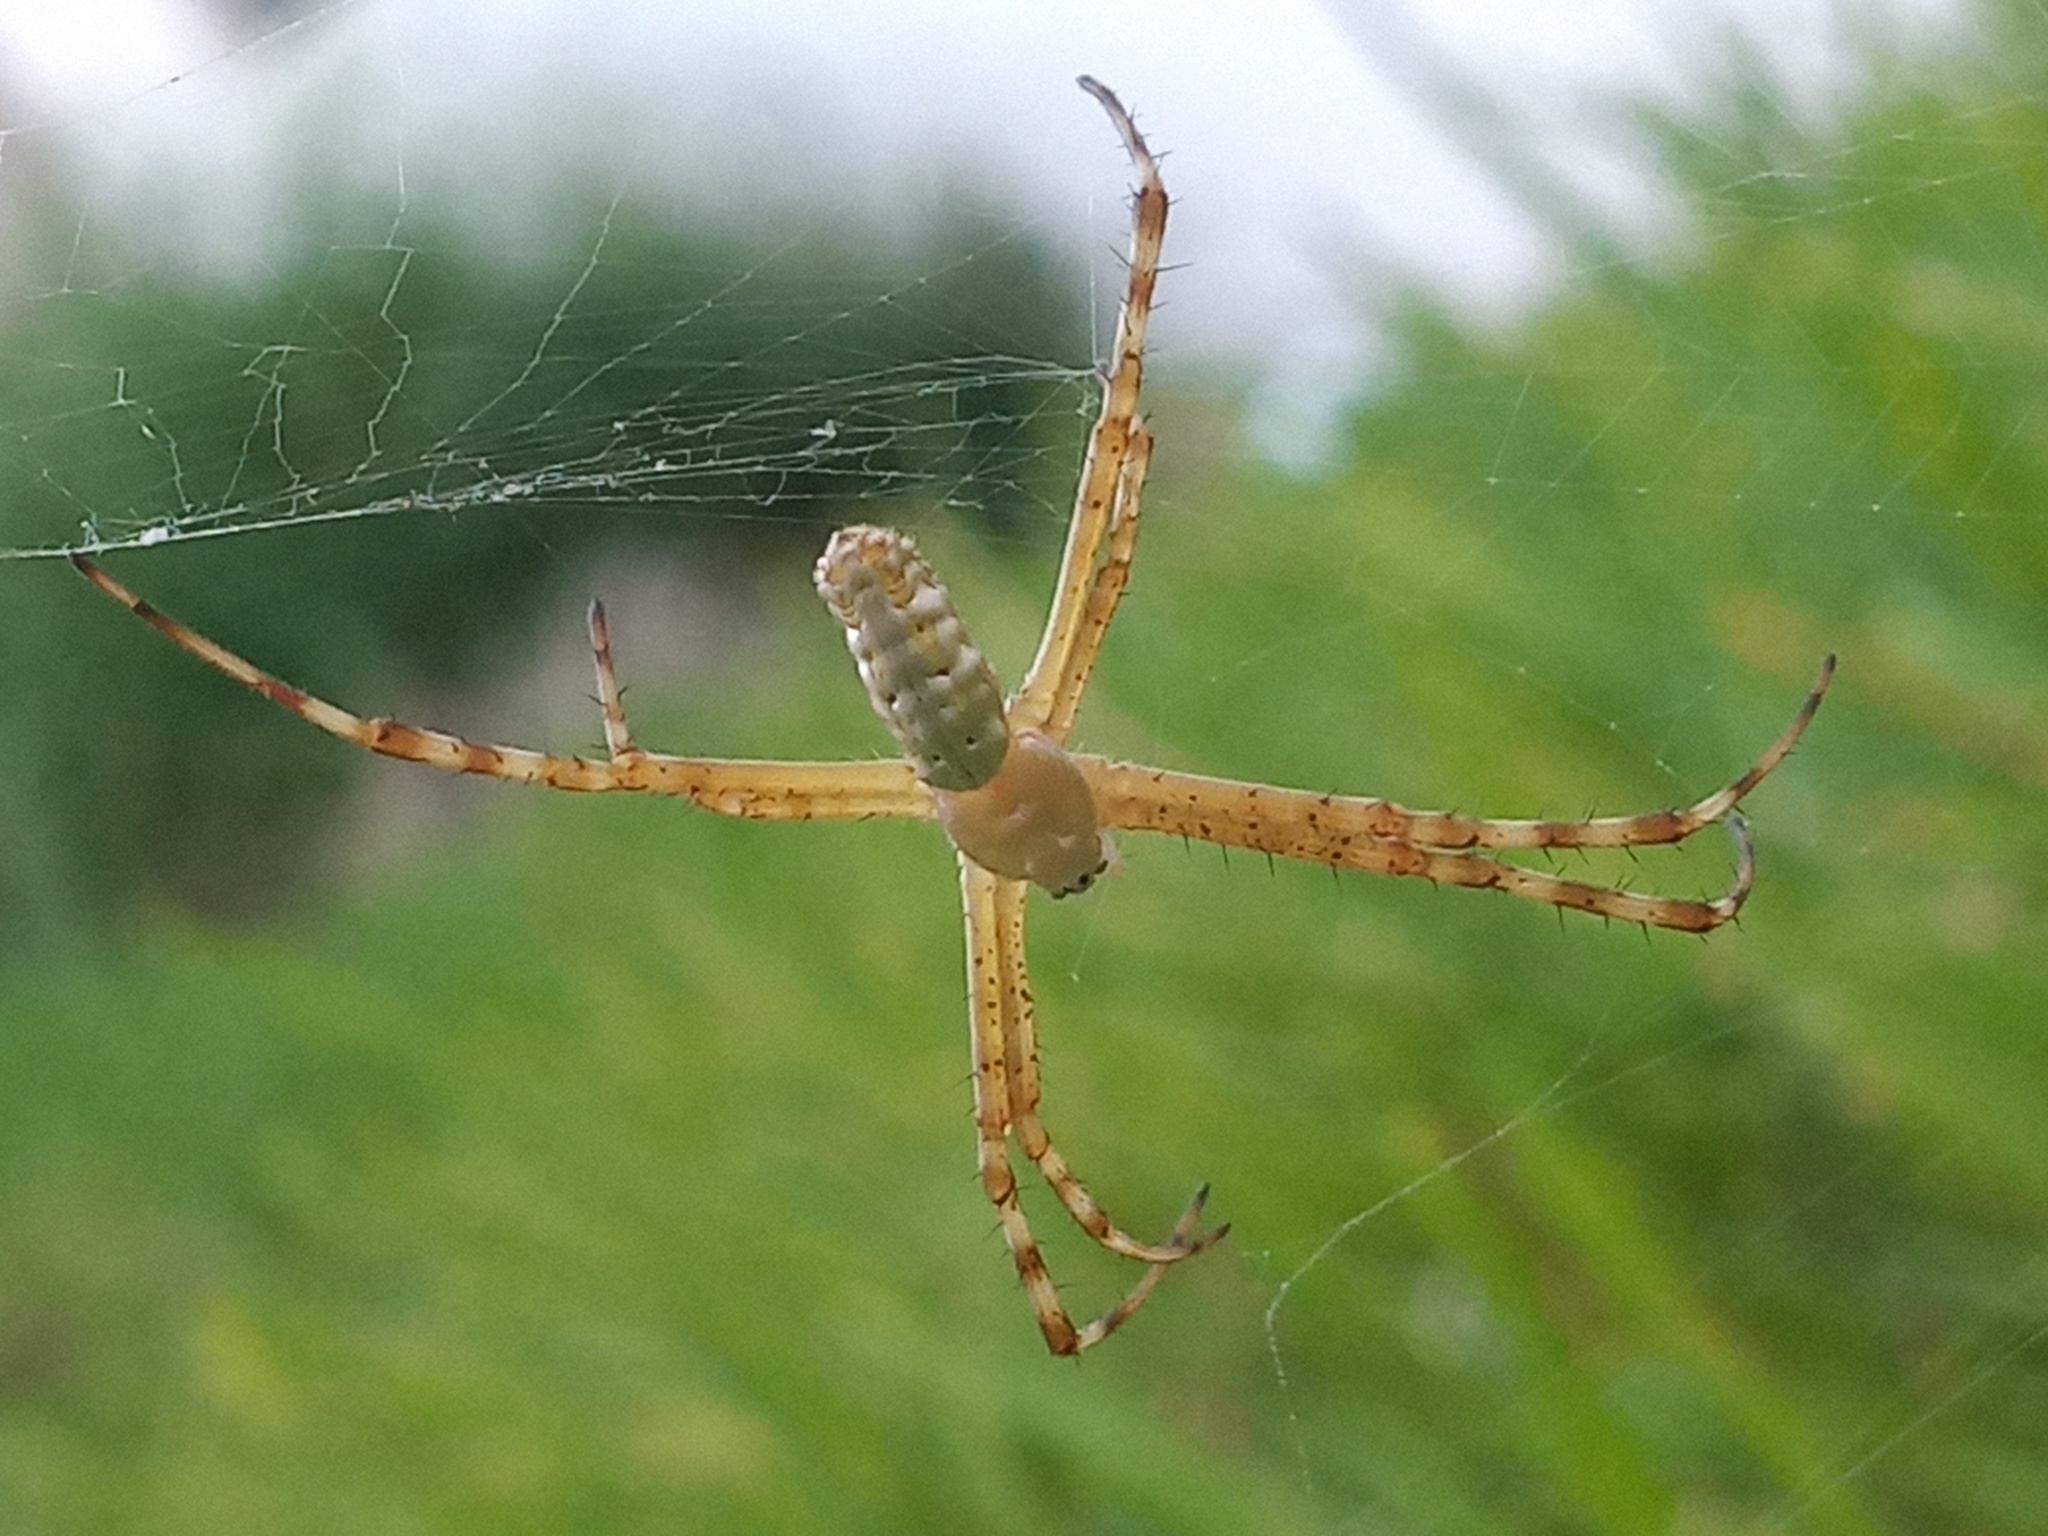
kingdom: Animalia
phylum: Arthropoda
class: Arachnida
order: Araneae
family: Araneidae
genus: Argiope
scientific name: Argiope trifasciata
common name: Banded garden spider
